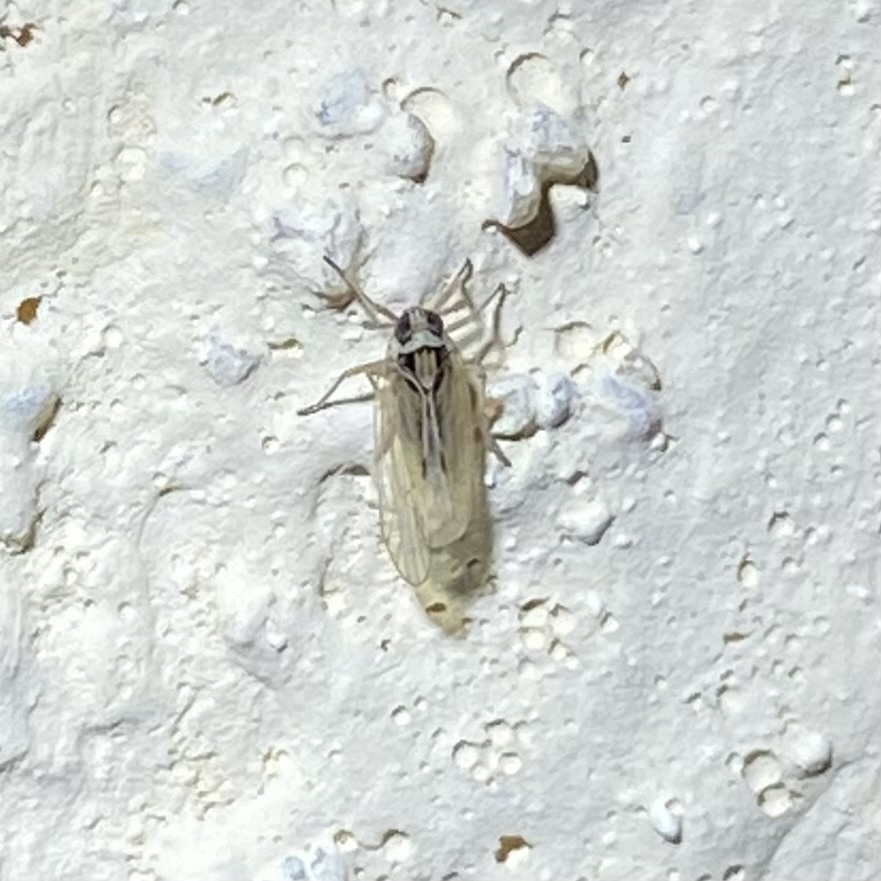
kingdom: Animalia
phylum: Arthropoda
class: Insecta
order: Hemiptera
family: Delphacidae
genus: Chionomus
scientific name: Chionomus
